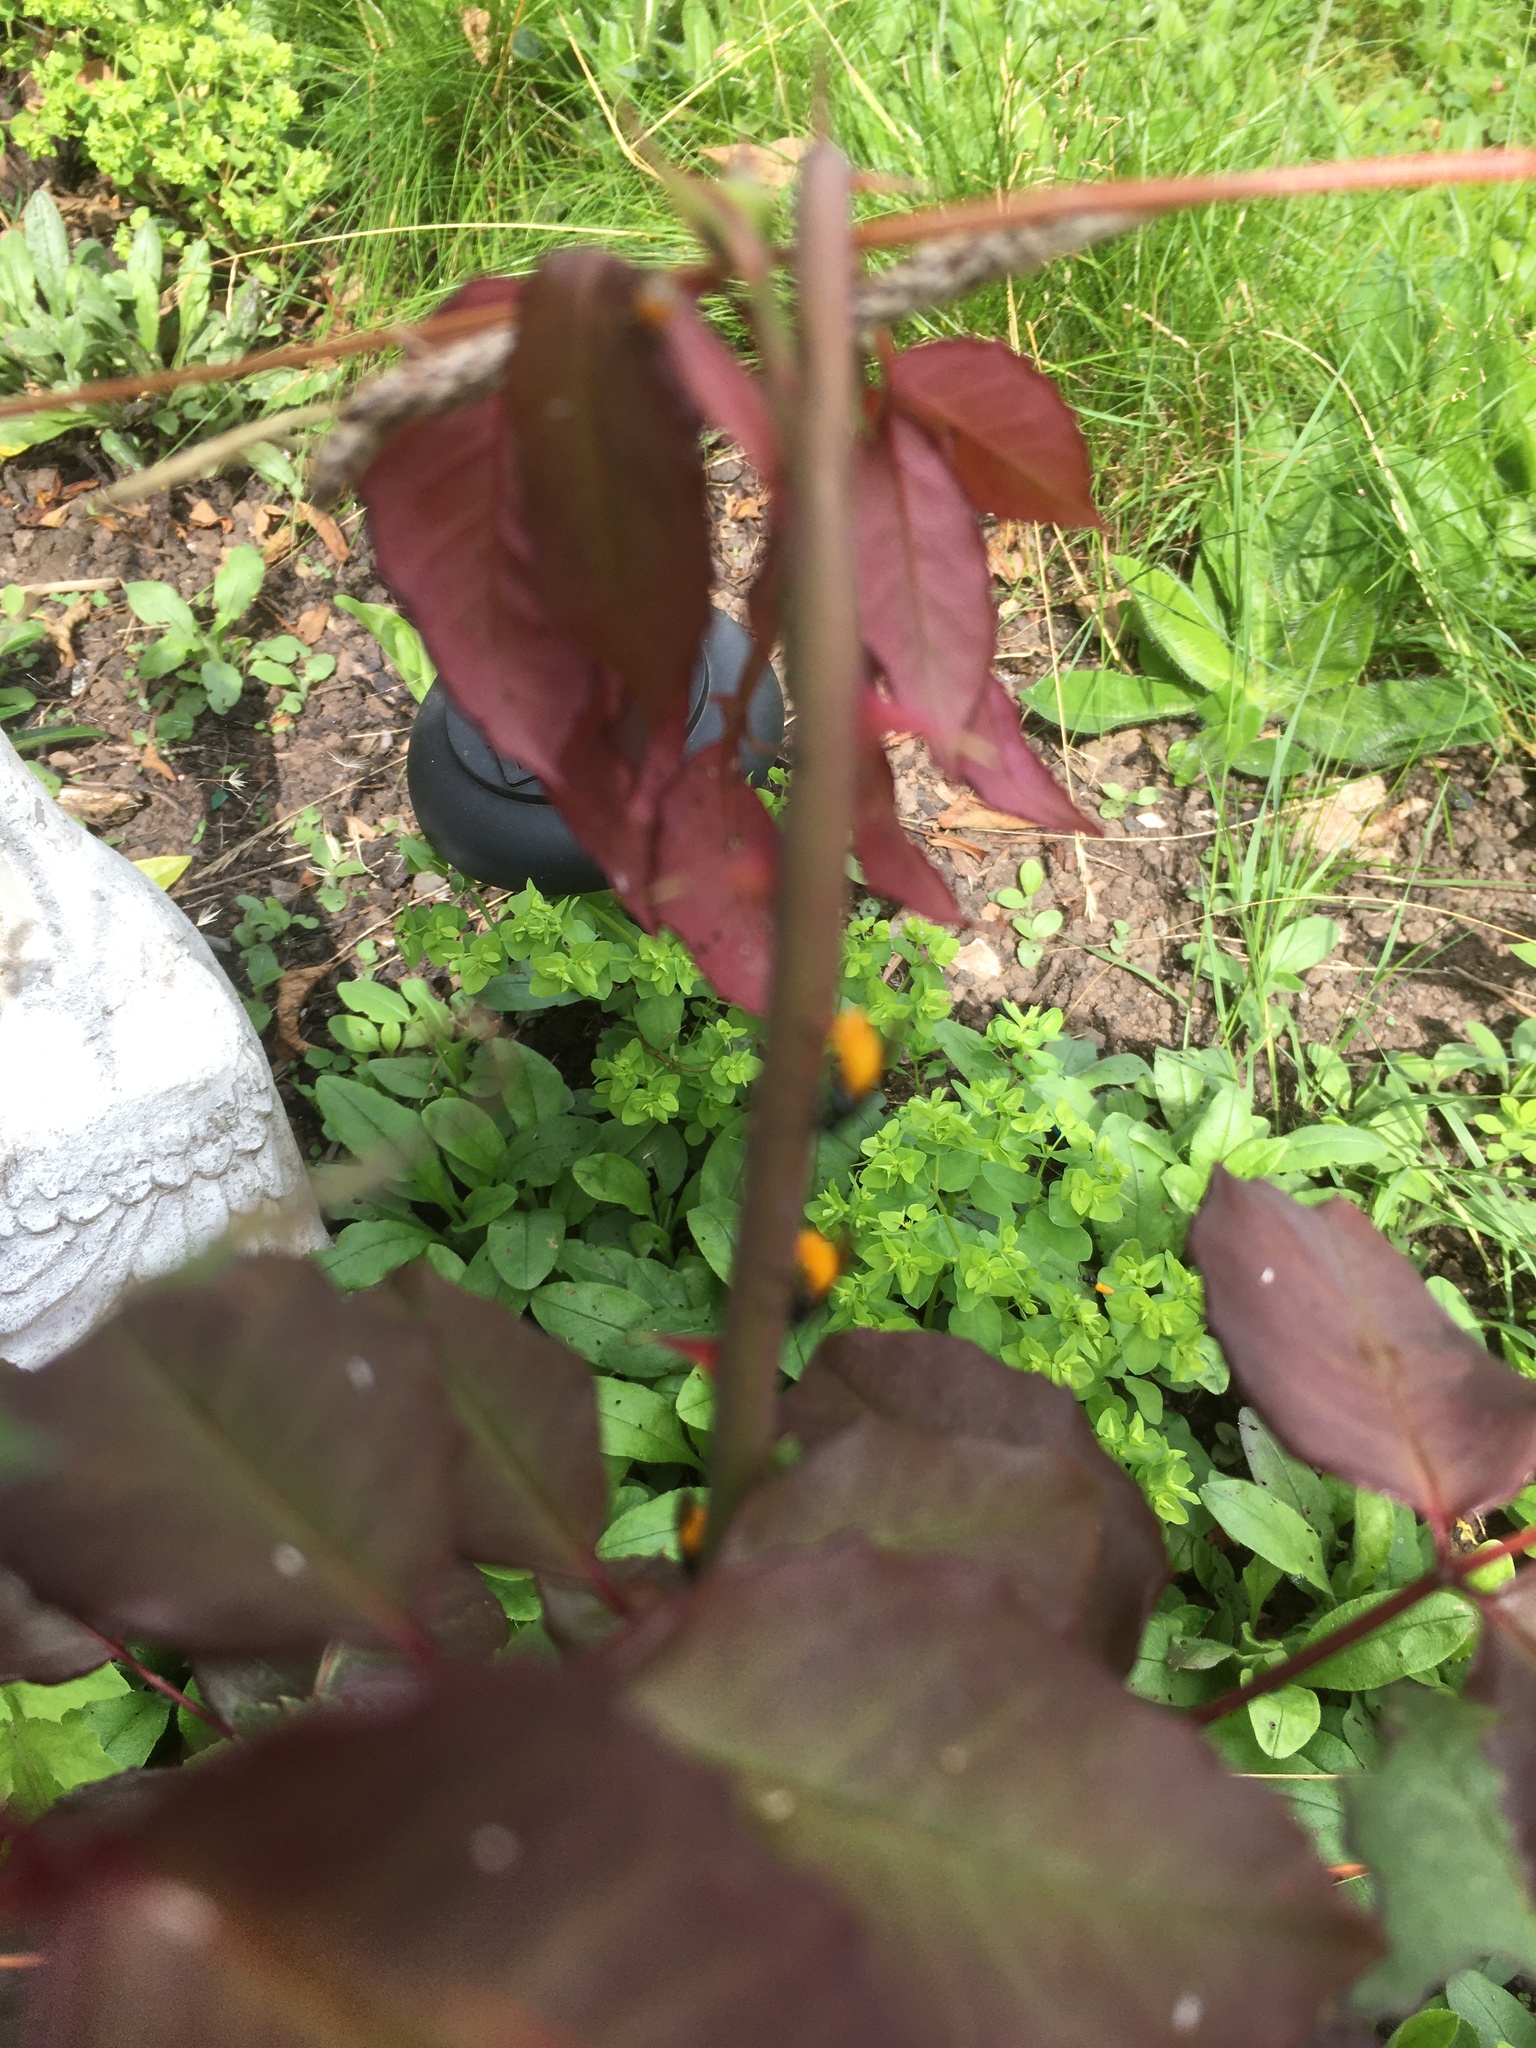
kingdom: Animalia
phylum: Arthropoda
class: Insecta
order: Hymenoptera
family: Argidae
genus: Arge
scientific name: Arge pagana
